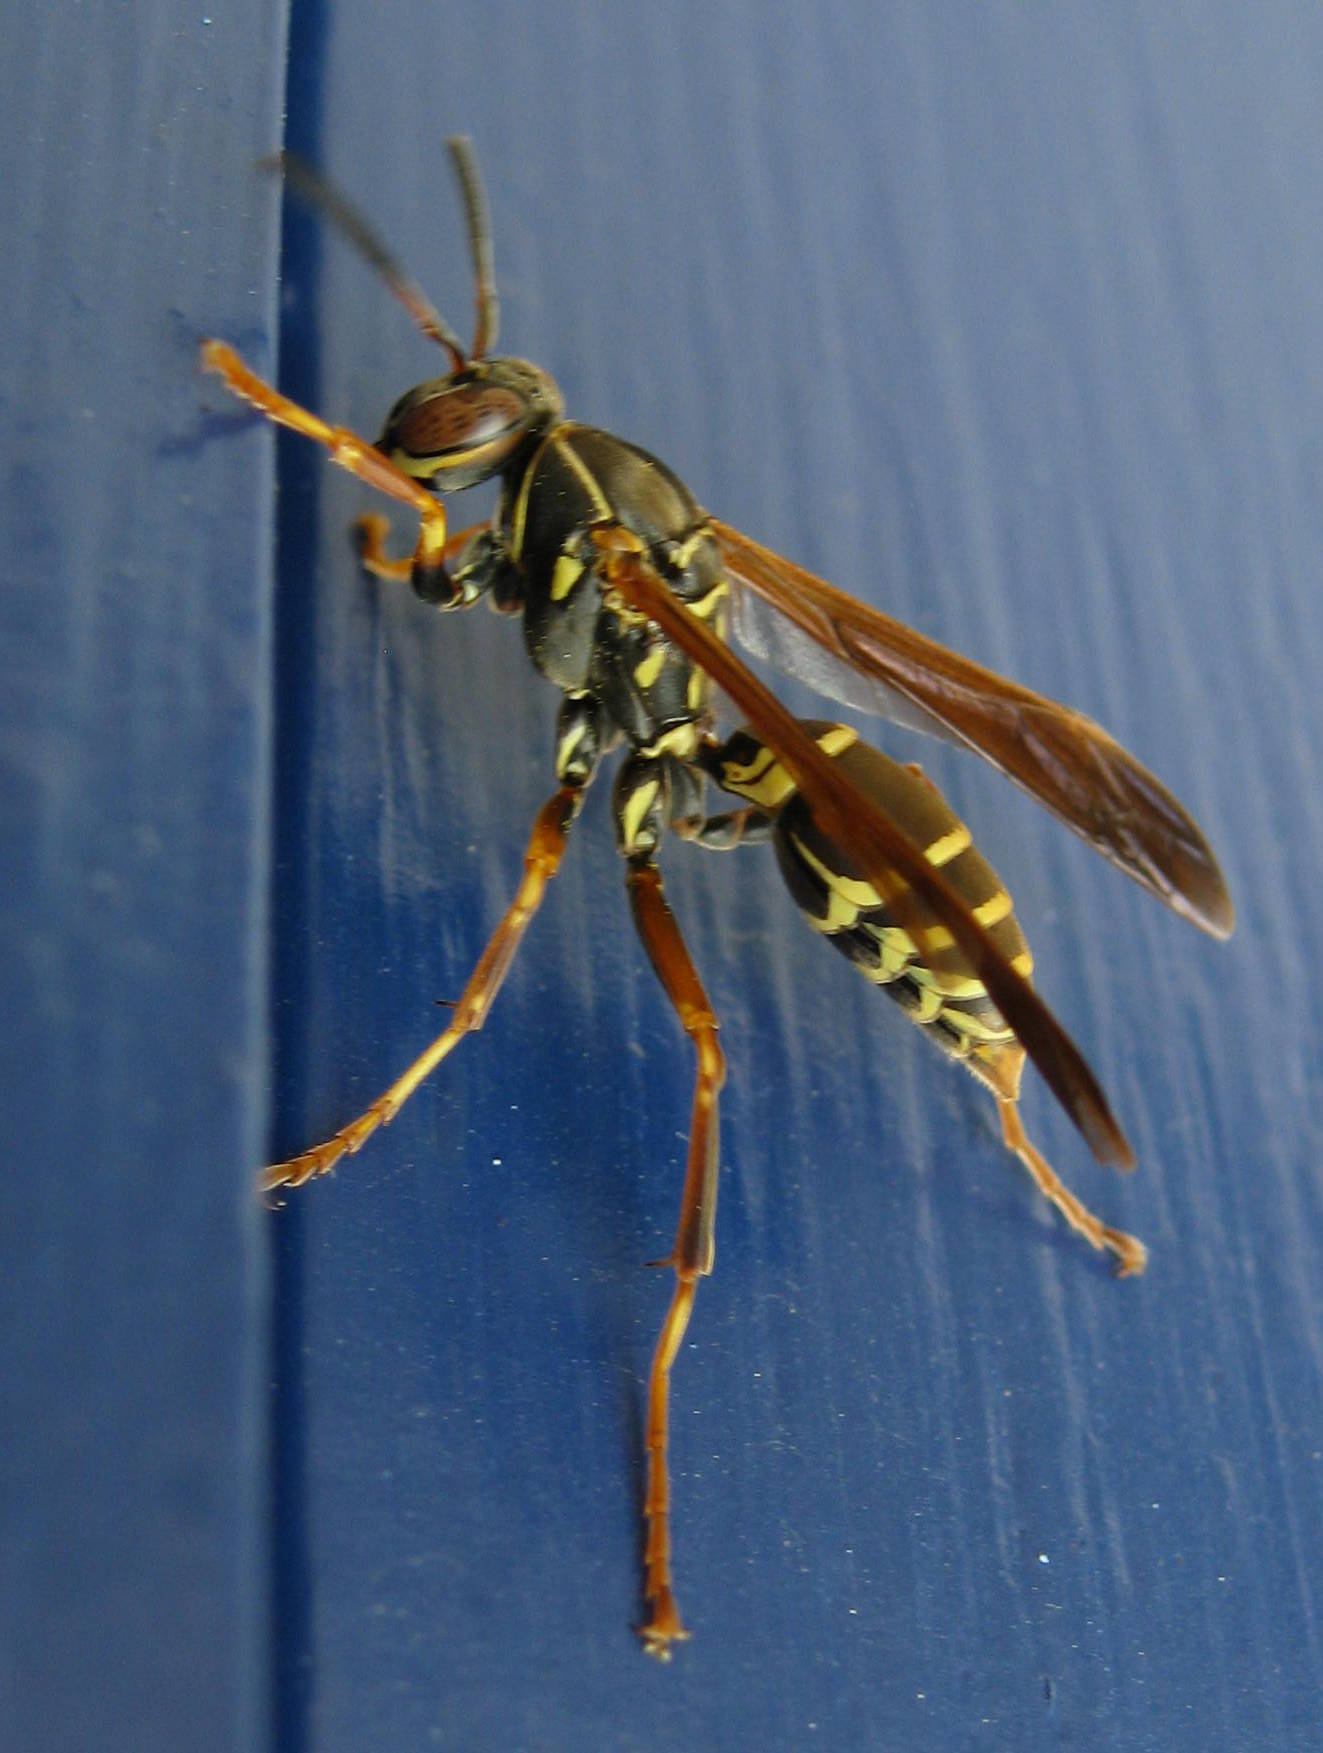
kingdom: Animalia
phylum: Arthropoda
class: Insecta
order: Hymenoptera
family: Eumenidae
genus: Polistes
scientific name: Polistes fuscatus
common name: Dark paper wasp
